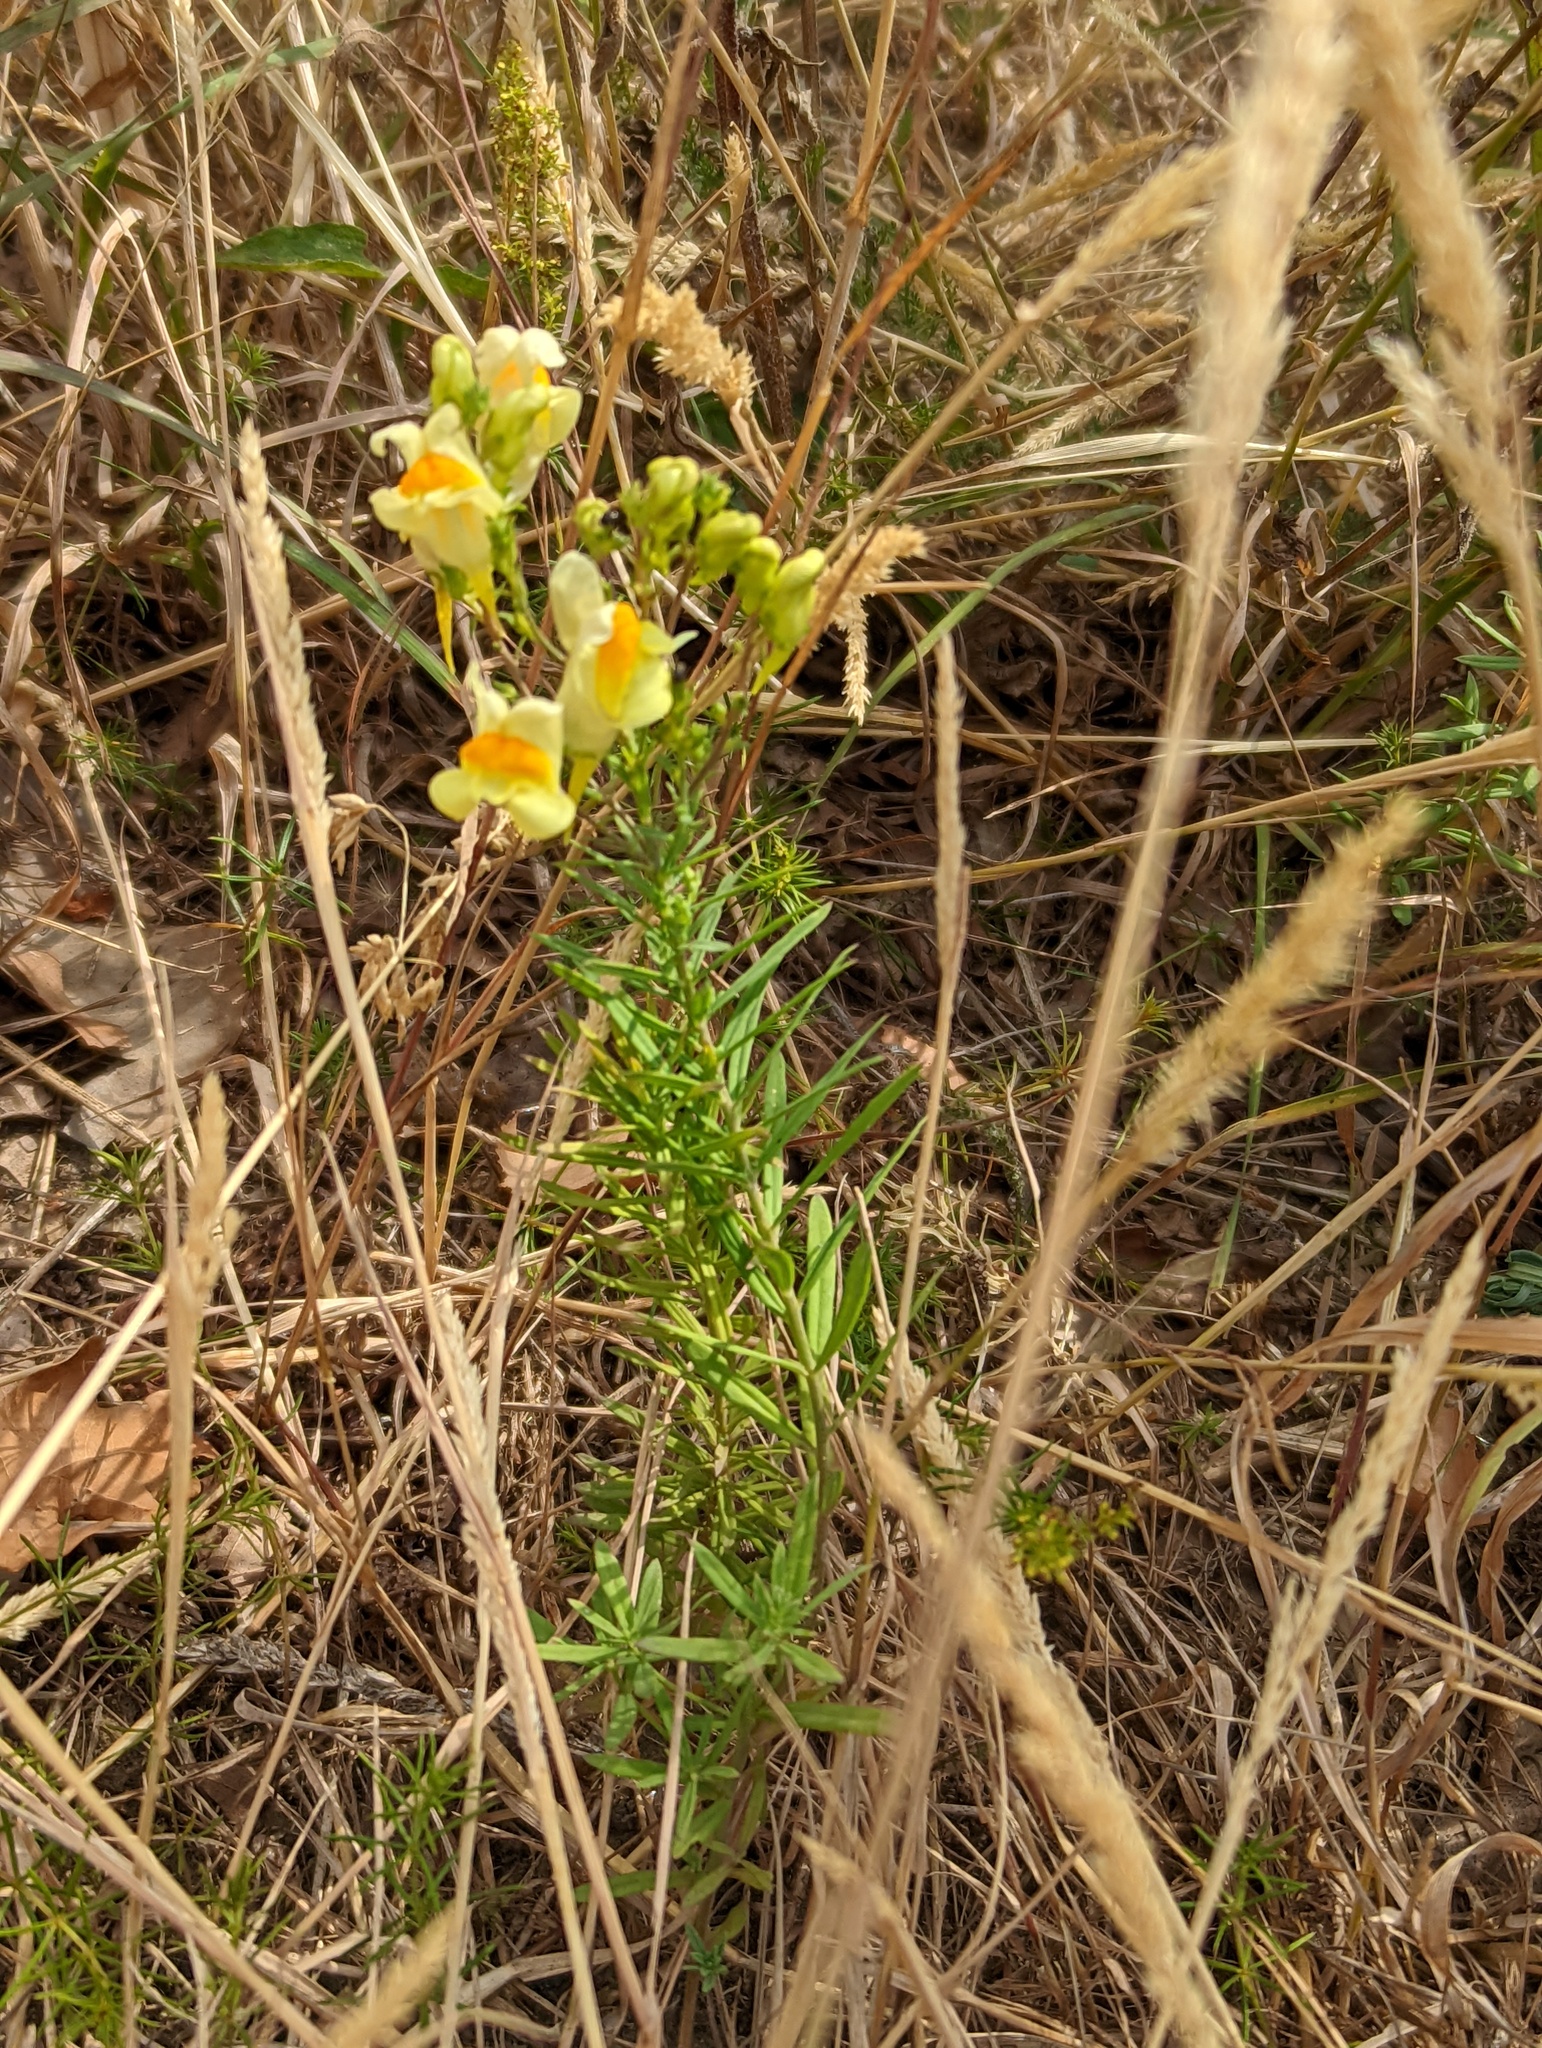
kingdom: Plantae
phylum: Tracheophyta
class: Magnoliopsida
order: Lamiales
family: Plantaginaceae
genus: Linaria
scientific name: Linaria vulgaris
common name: Butter and eggs
